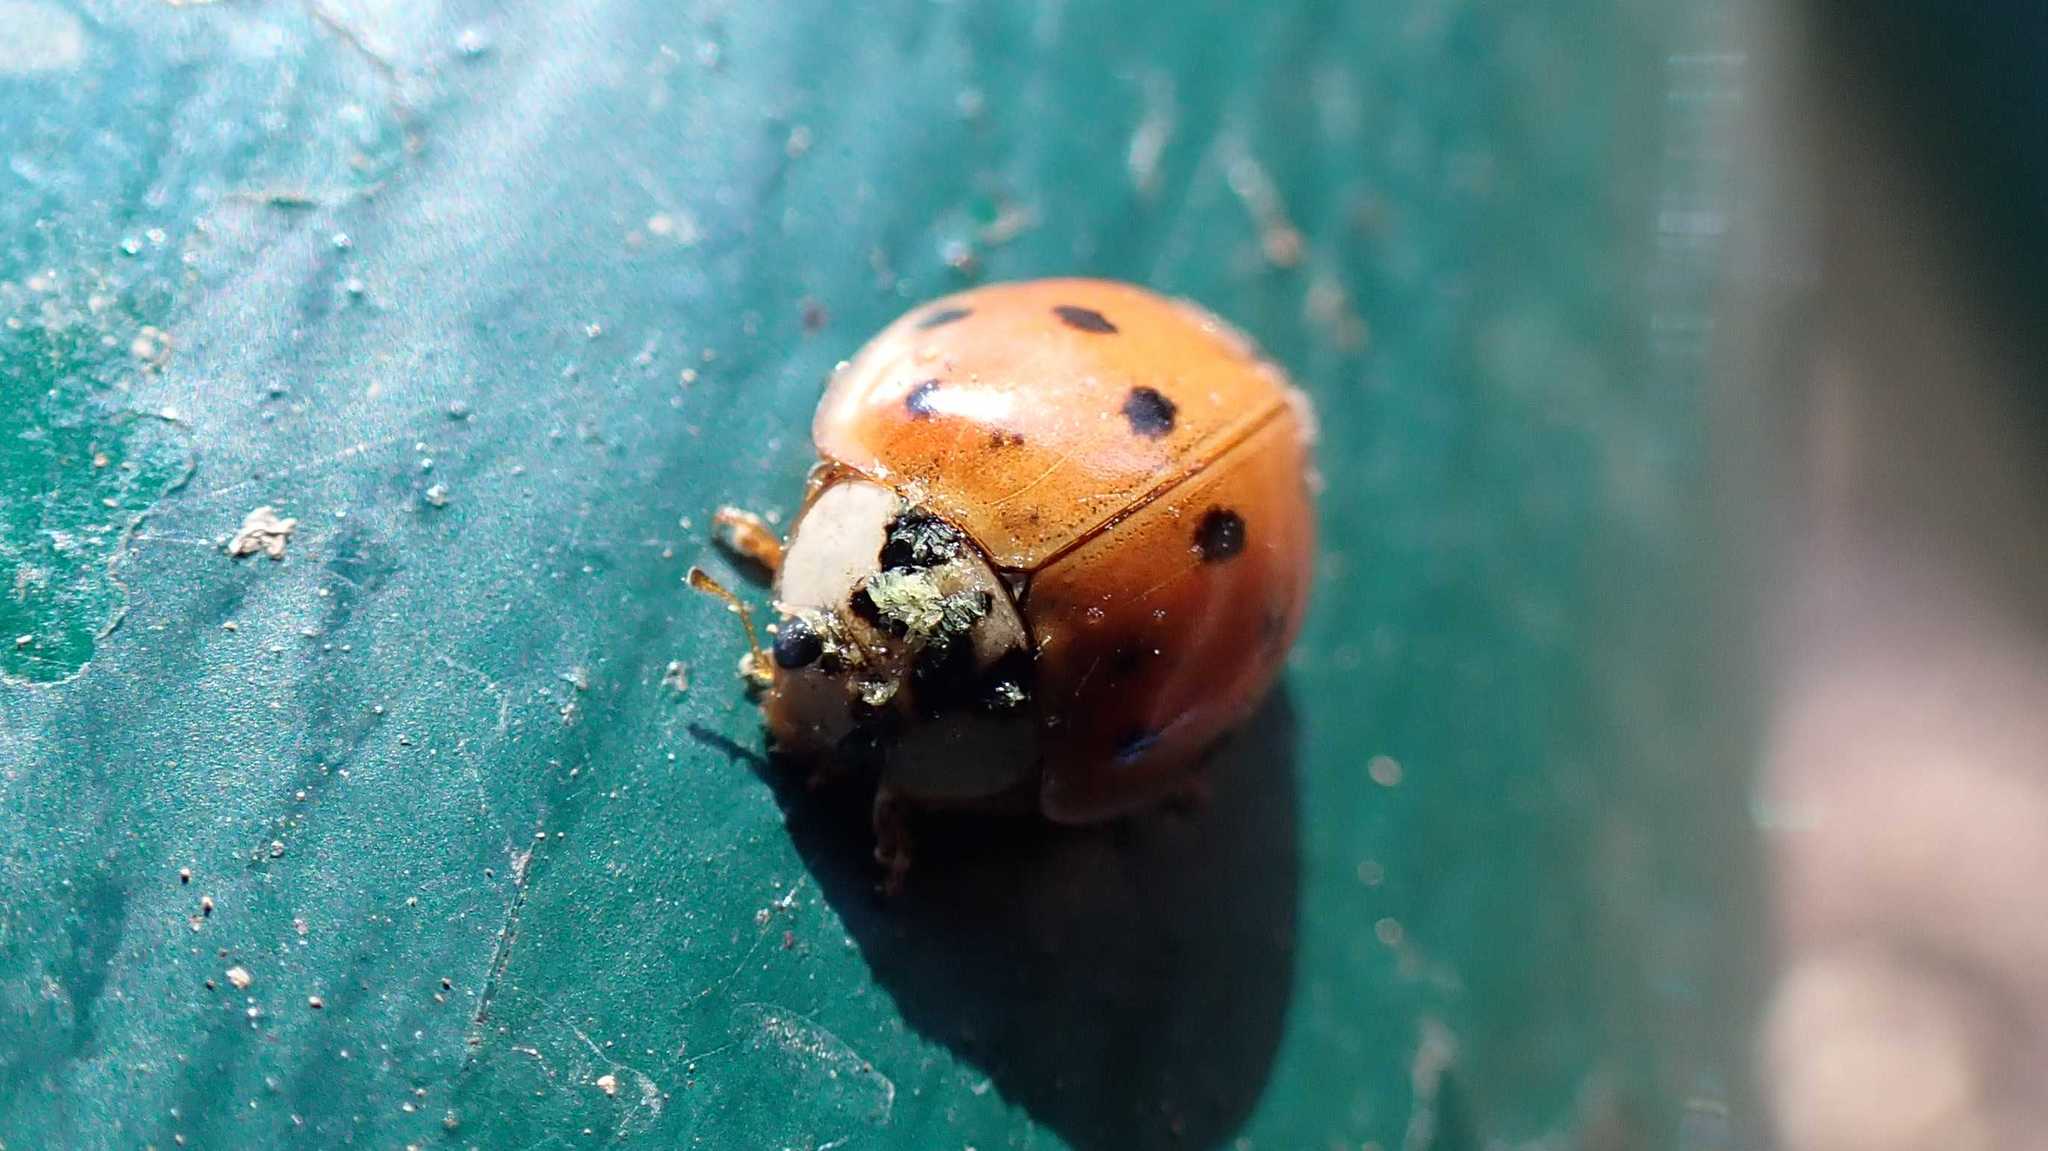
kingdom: Fungi
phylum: Ascomycota
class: Laboulbeniomycetes
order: Laboulbeniales
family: Laboulbeniaceae
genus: Hesperomyces
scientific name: Hesperomyces harmoniae
